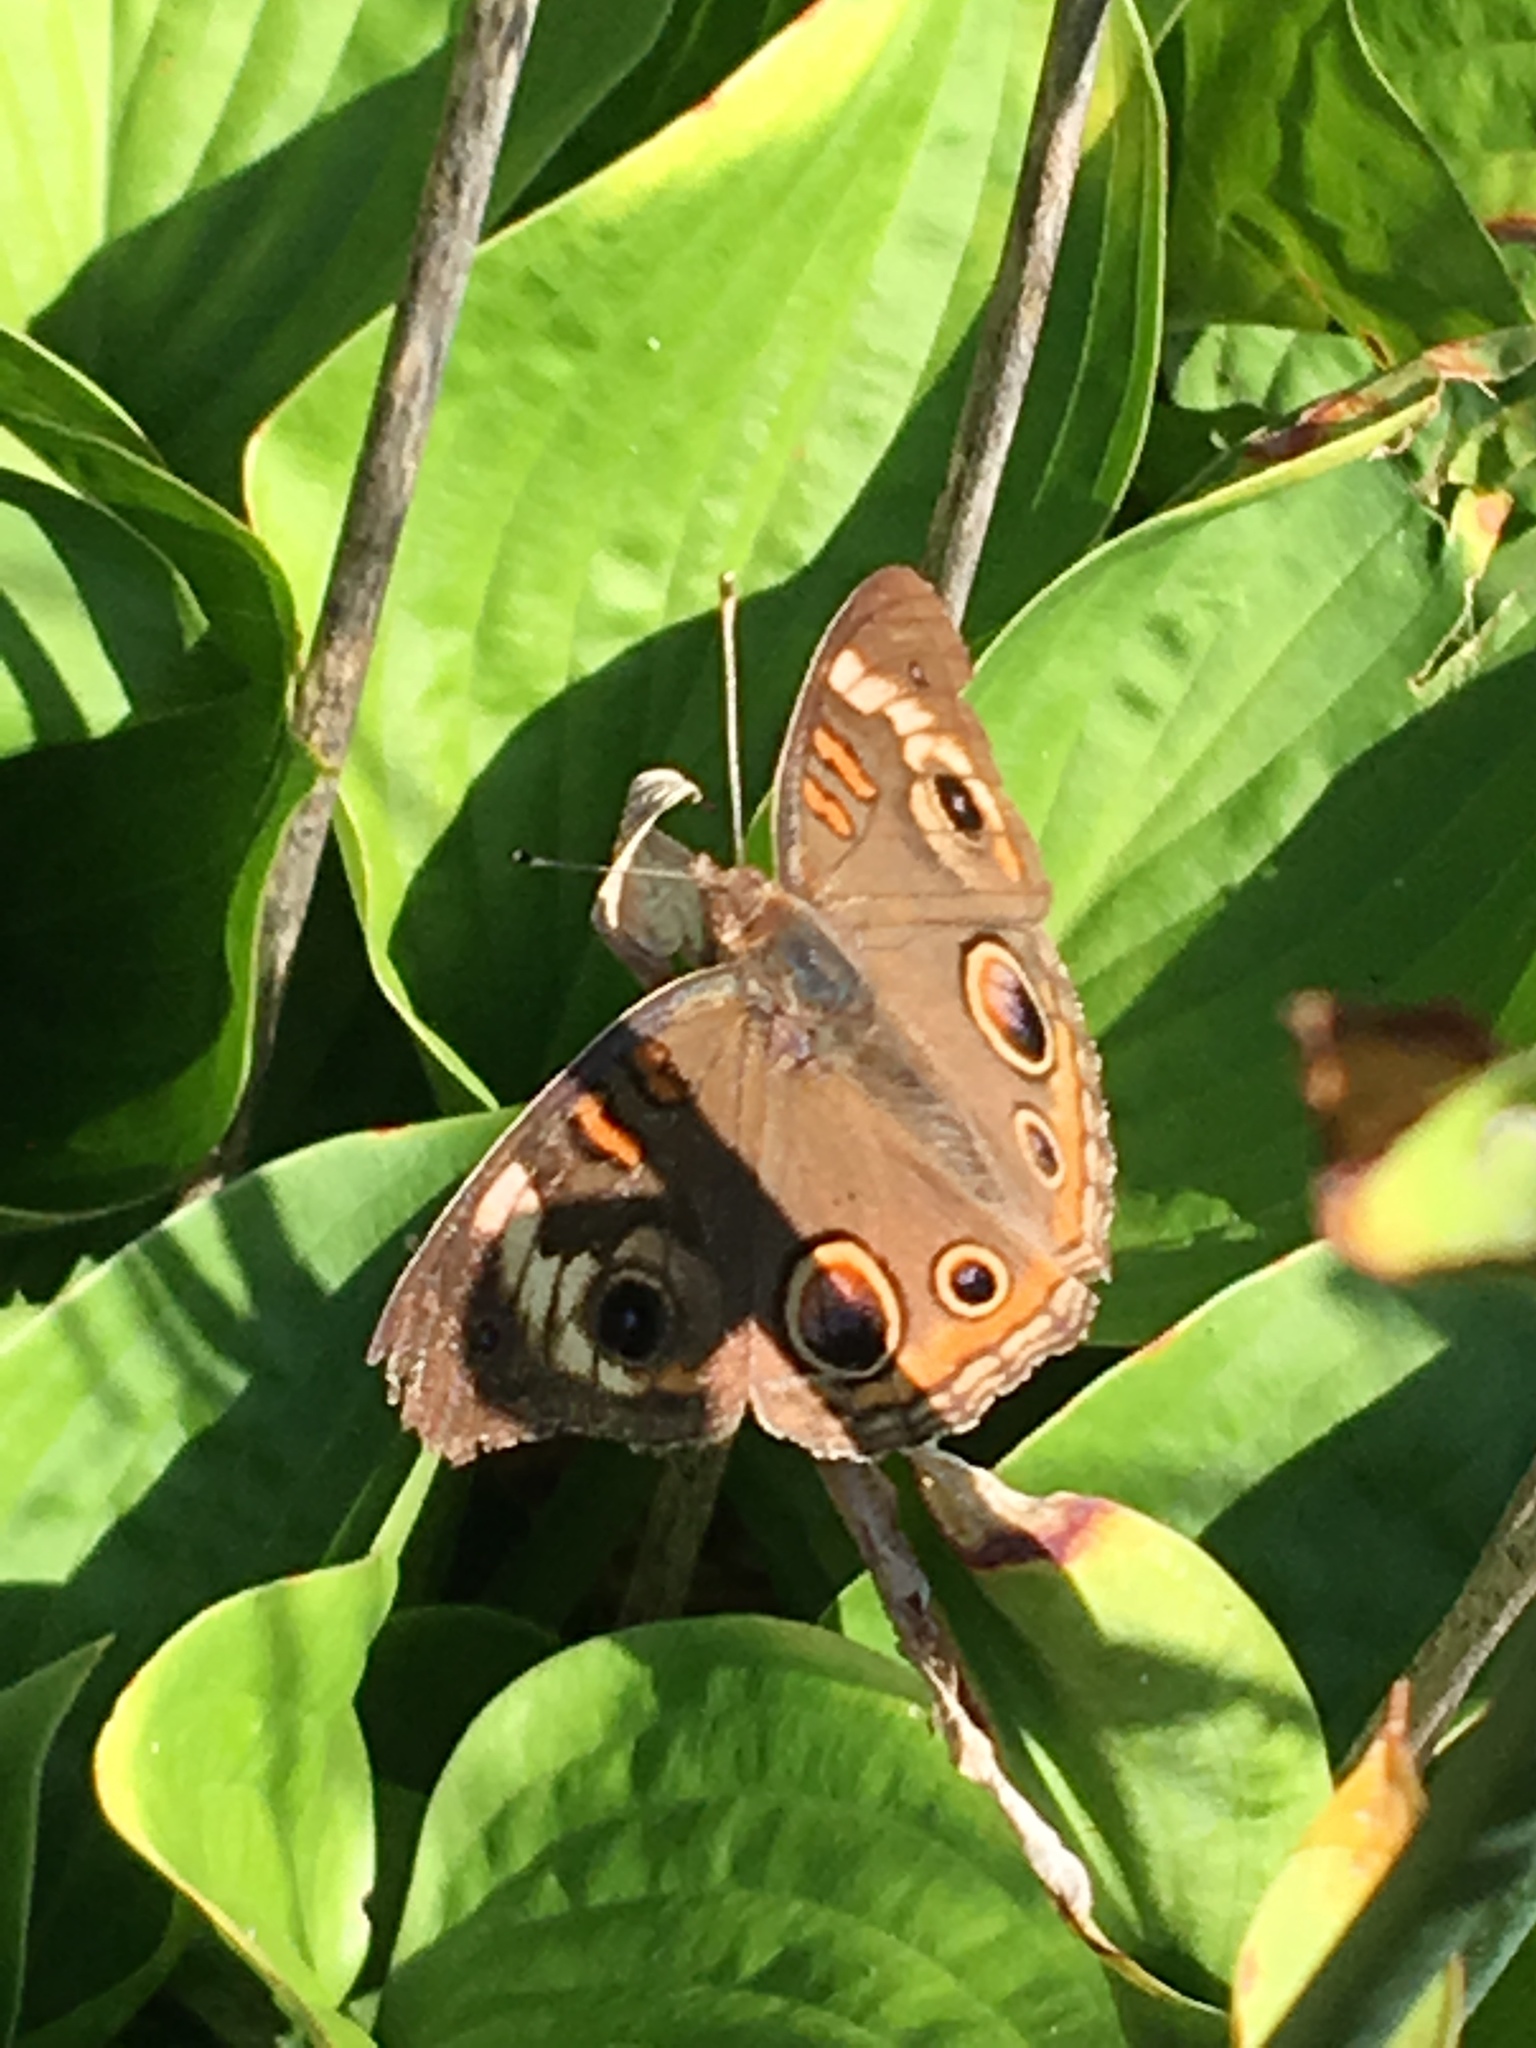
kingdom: Animalia
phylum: Arthropoda
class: Insecta
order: Lepidoptera
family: Nymphalidae
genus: Junonia
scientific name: Junonia coenia
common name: Common buckeye
